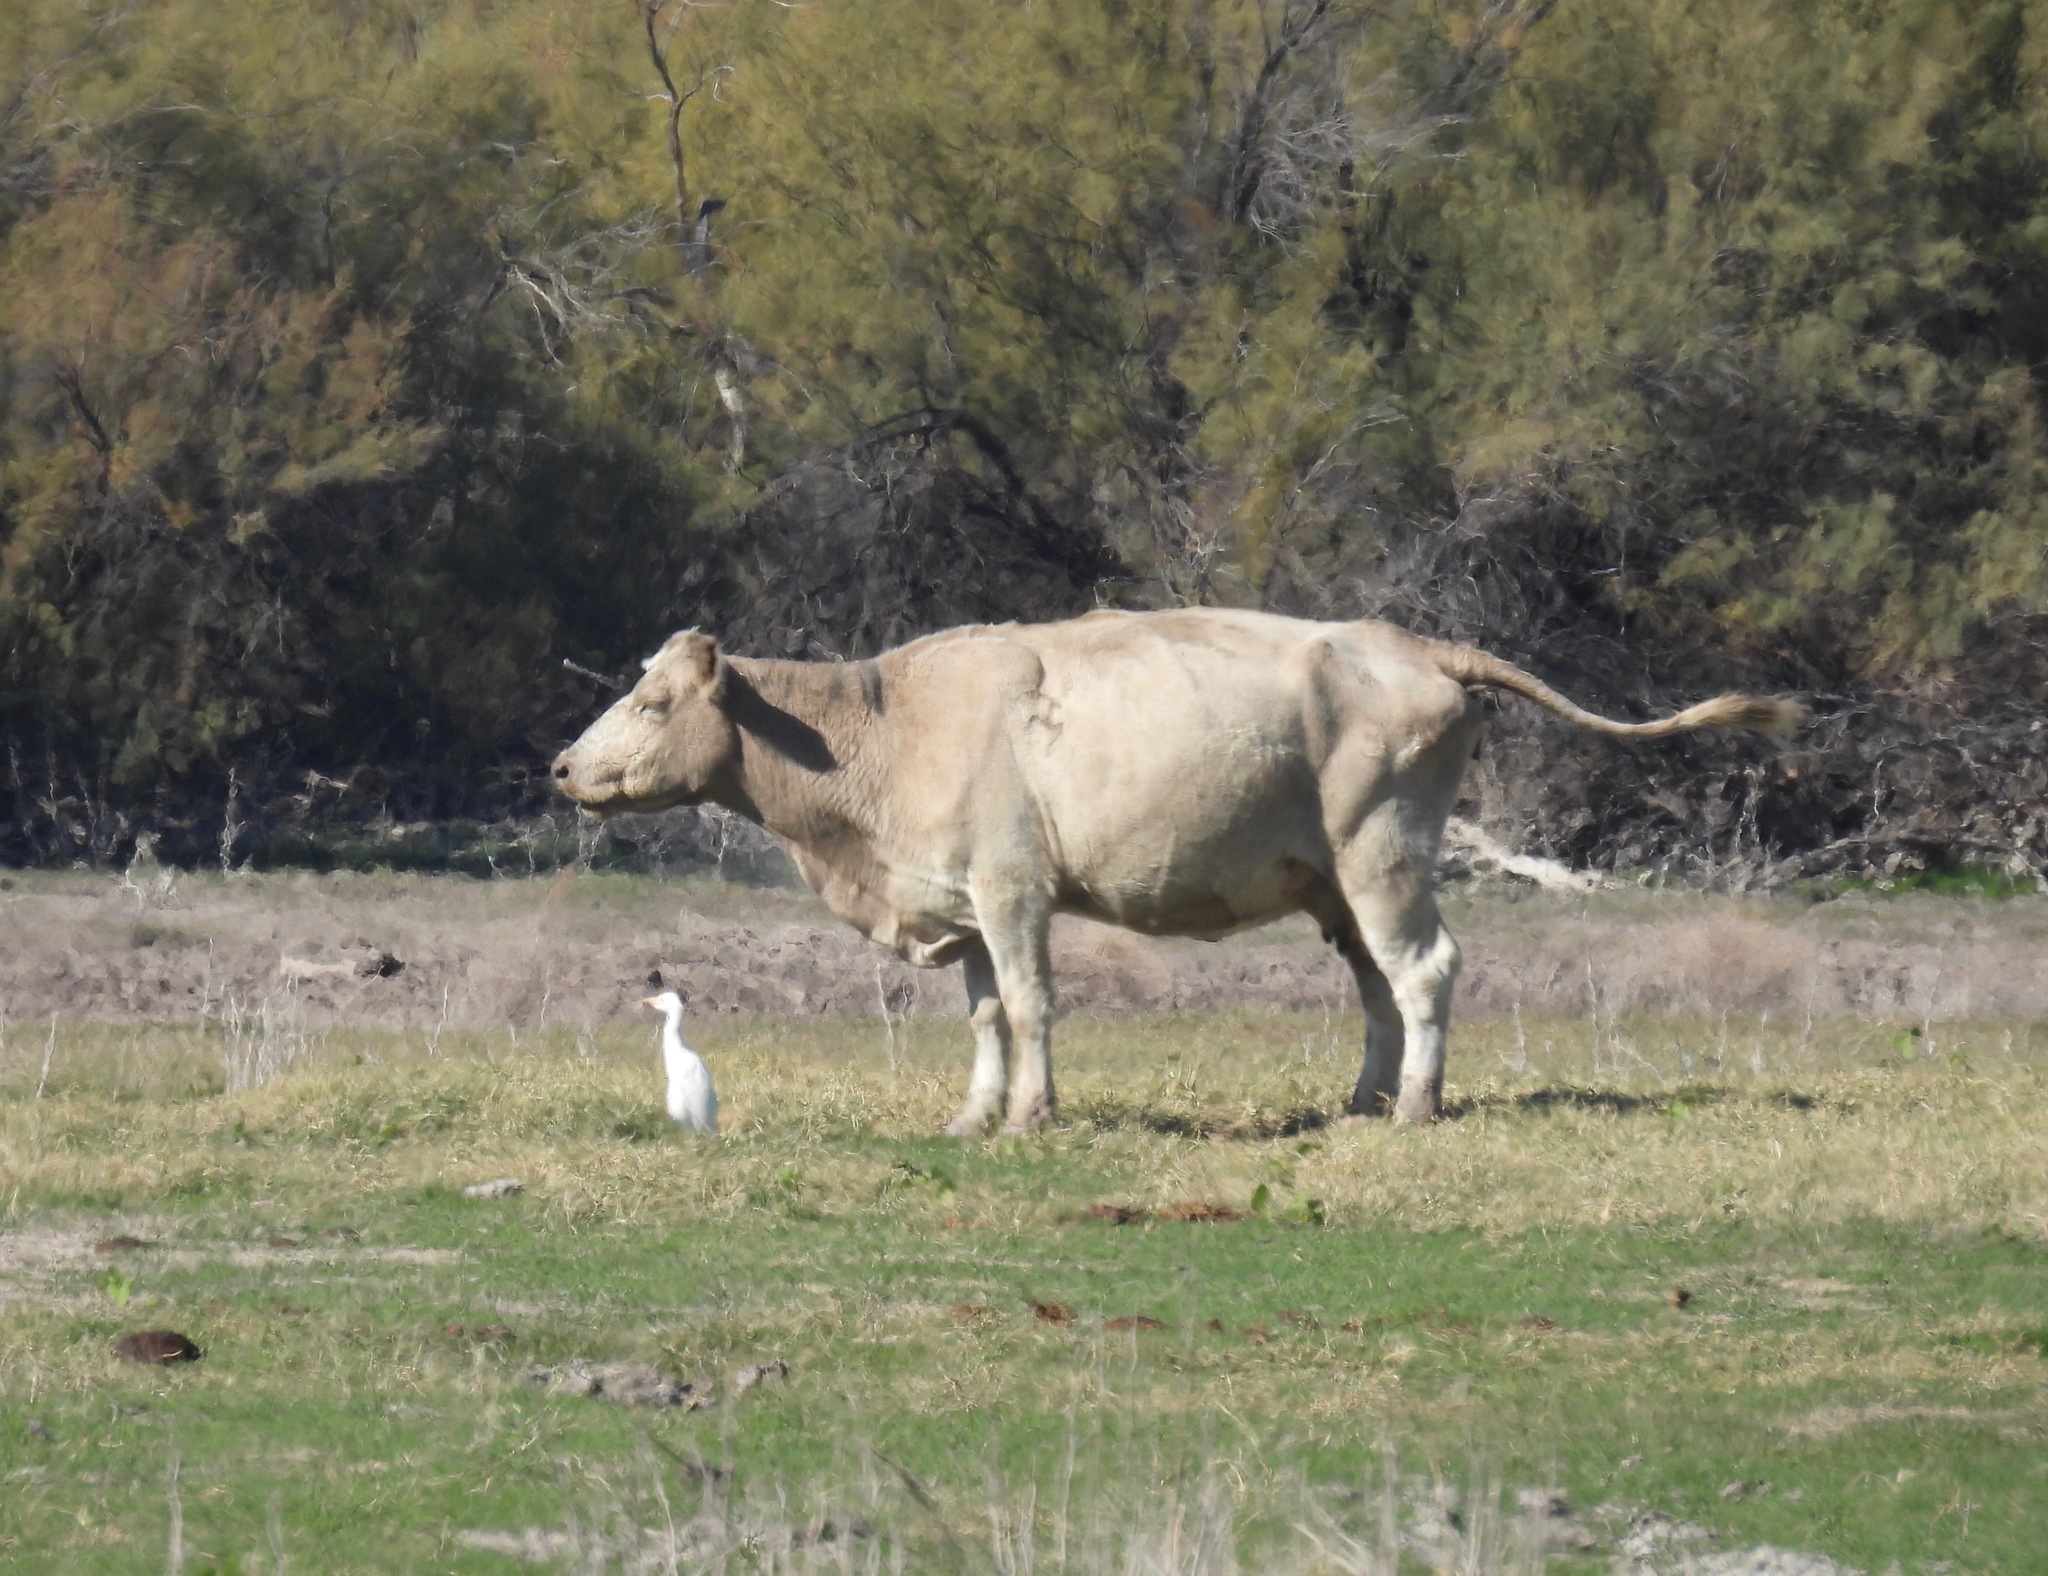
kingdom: Animalia
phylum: Chordata
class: Aves
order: Pelecaniformes
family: Ardeidae
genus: Bubulcus
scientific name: Bubulcus ibis
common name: Cattle egret
